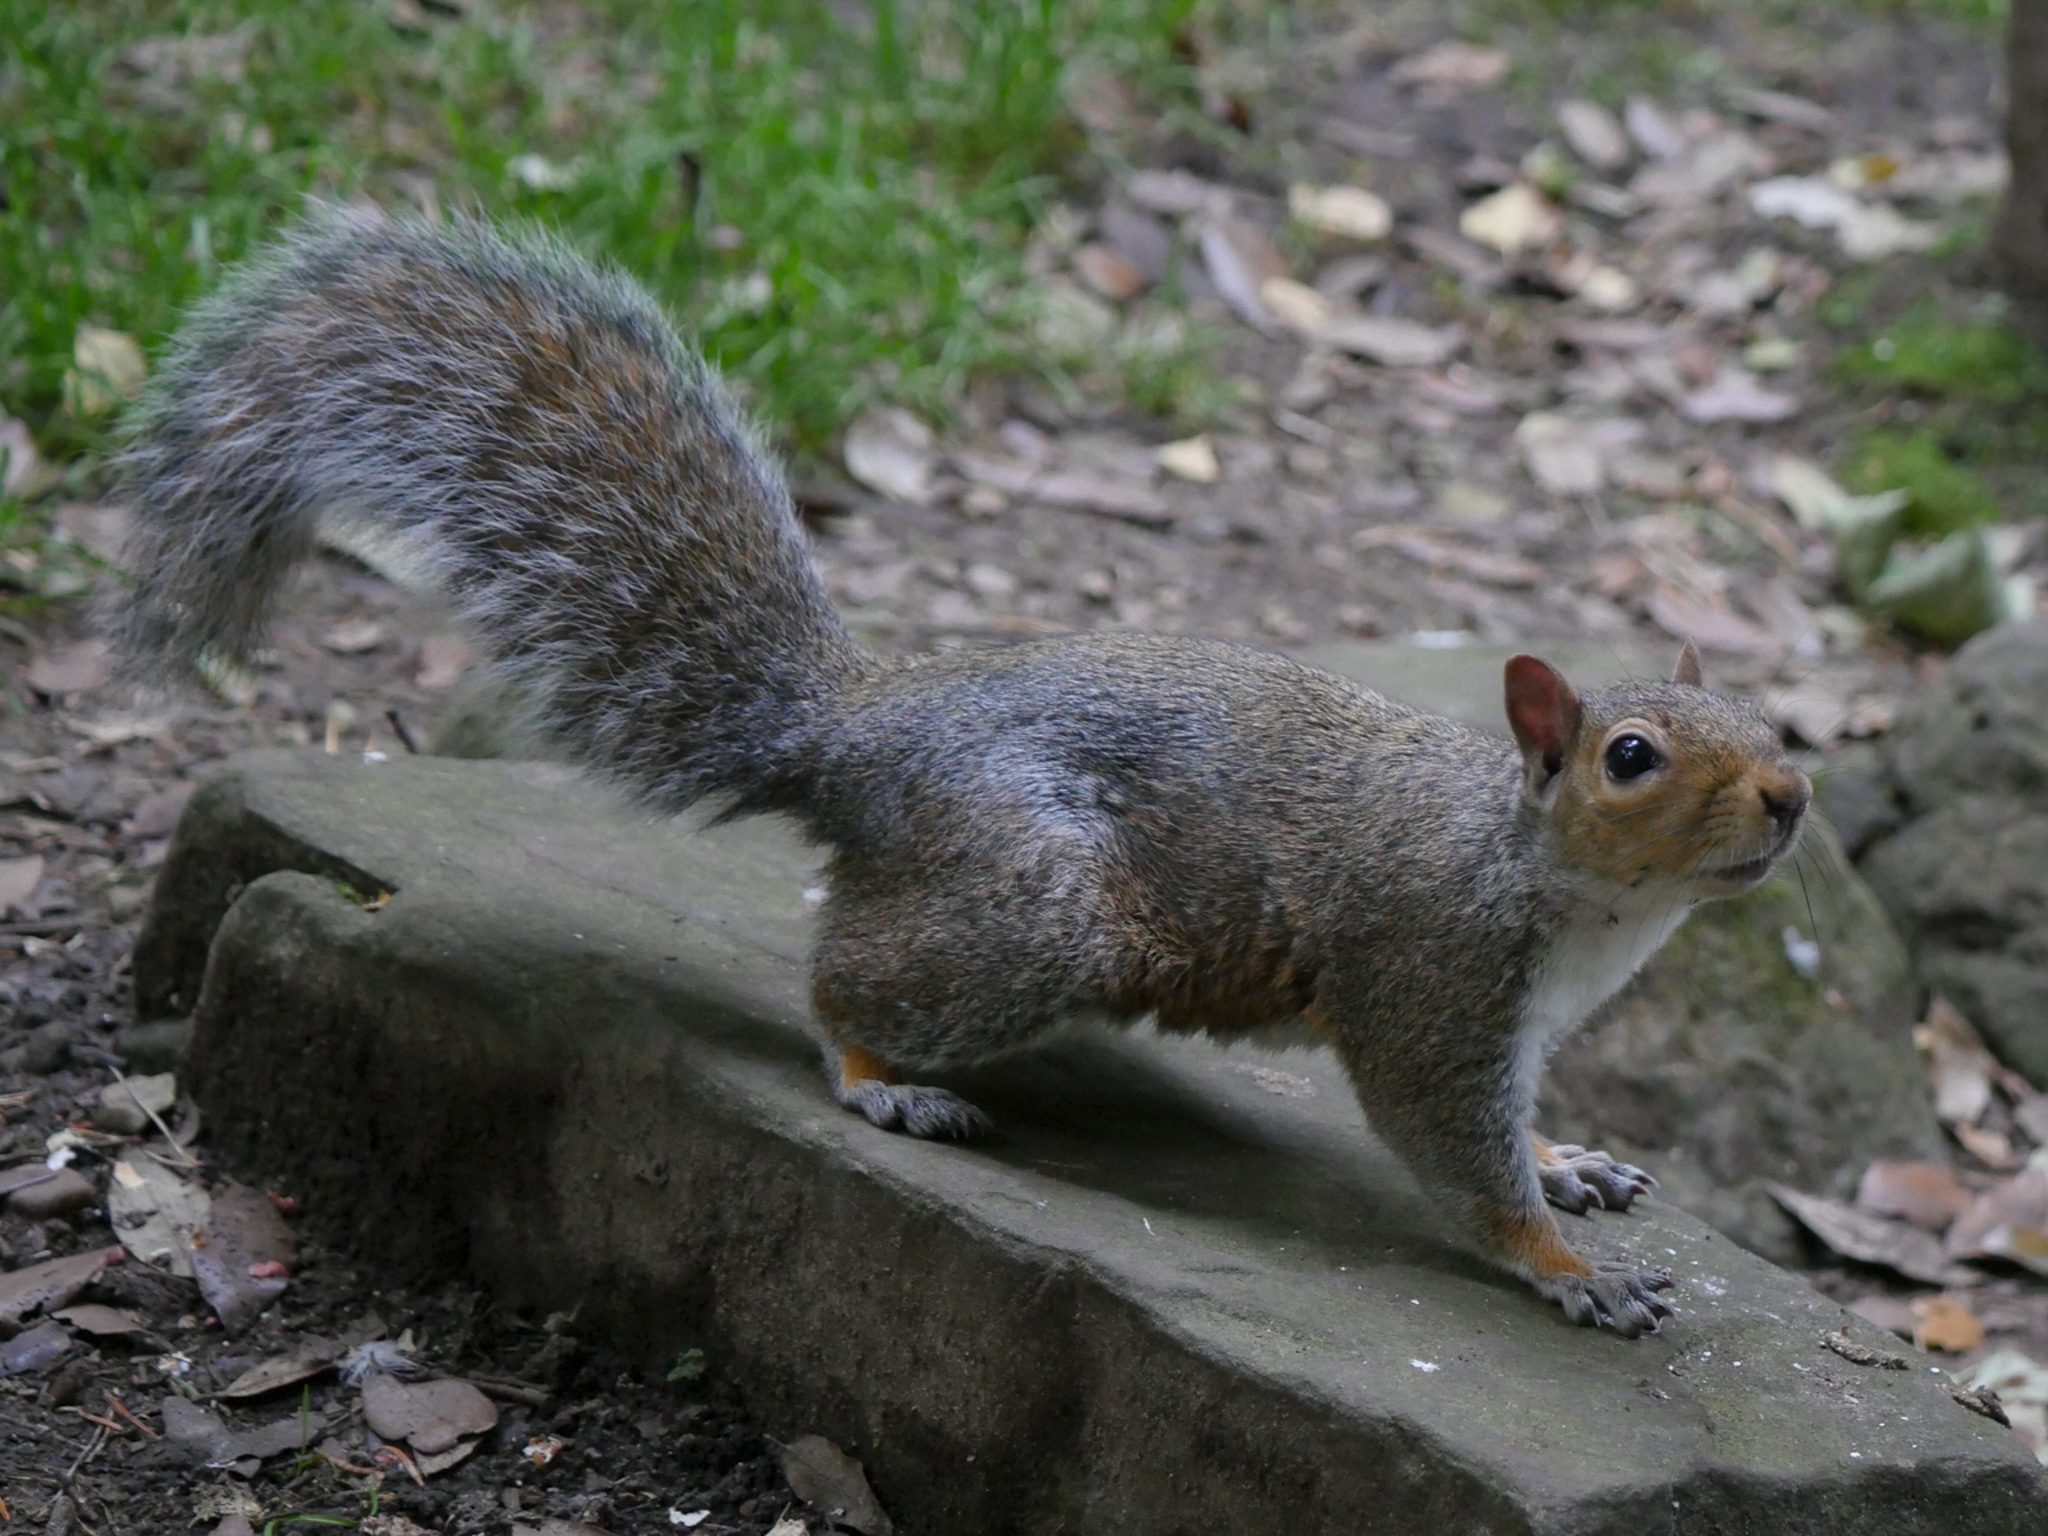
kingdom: Animalia
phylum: Chordata
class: Mammalia
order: Rodentia
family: Sciuridae
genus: Sciurus
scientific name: Sciurus carolinensis
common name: Eastern gray squirrel
